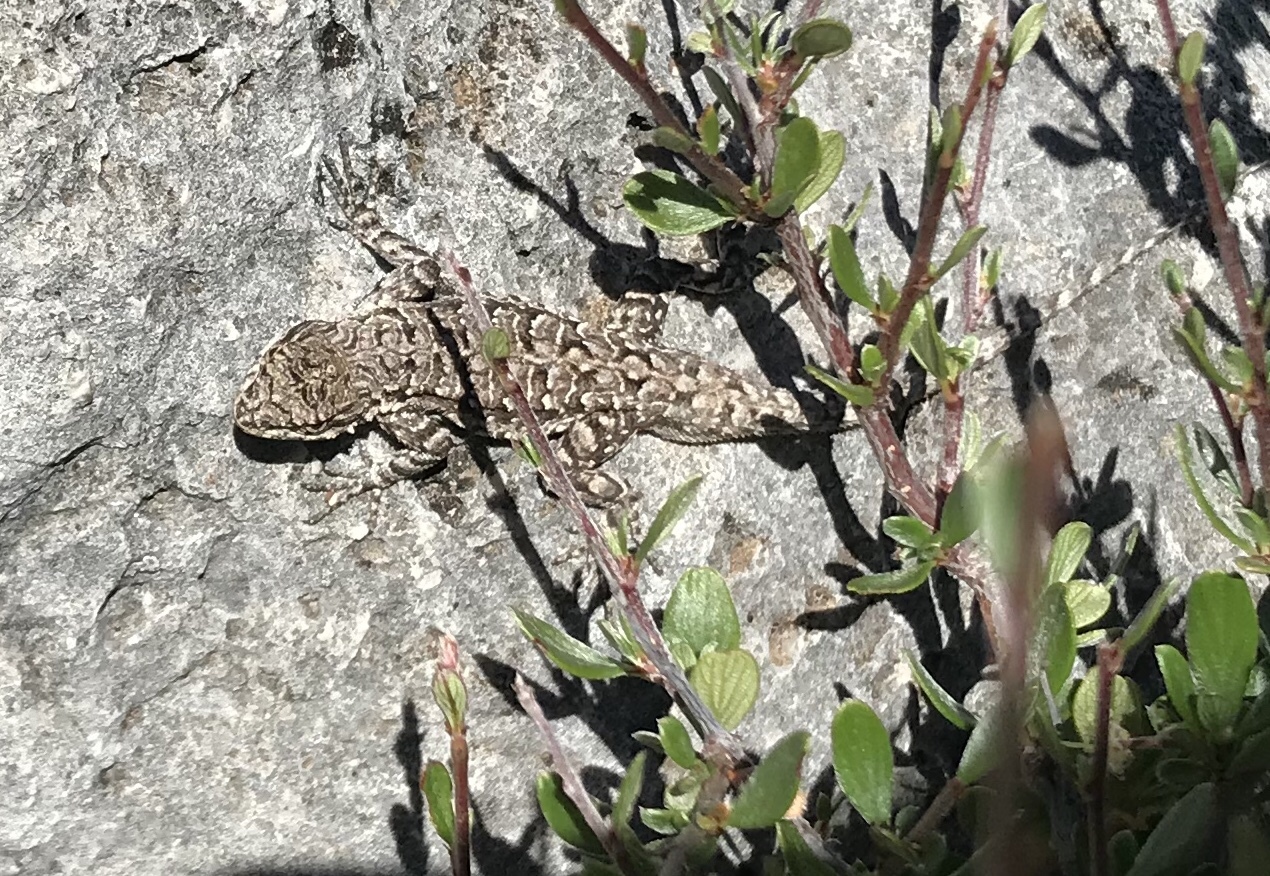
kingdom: Animalia
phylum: Chordata
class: Squamata
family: Phrynosomatidae
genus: Urosaurus
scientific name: Urosaurus ornatus
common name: Ornate tree lizard
